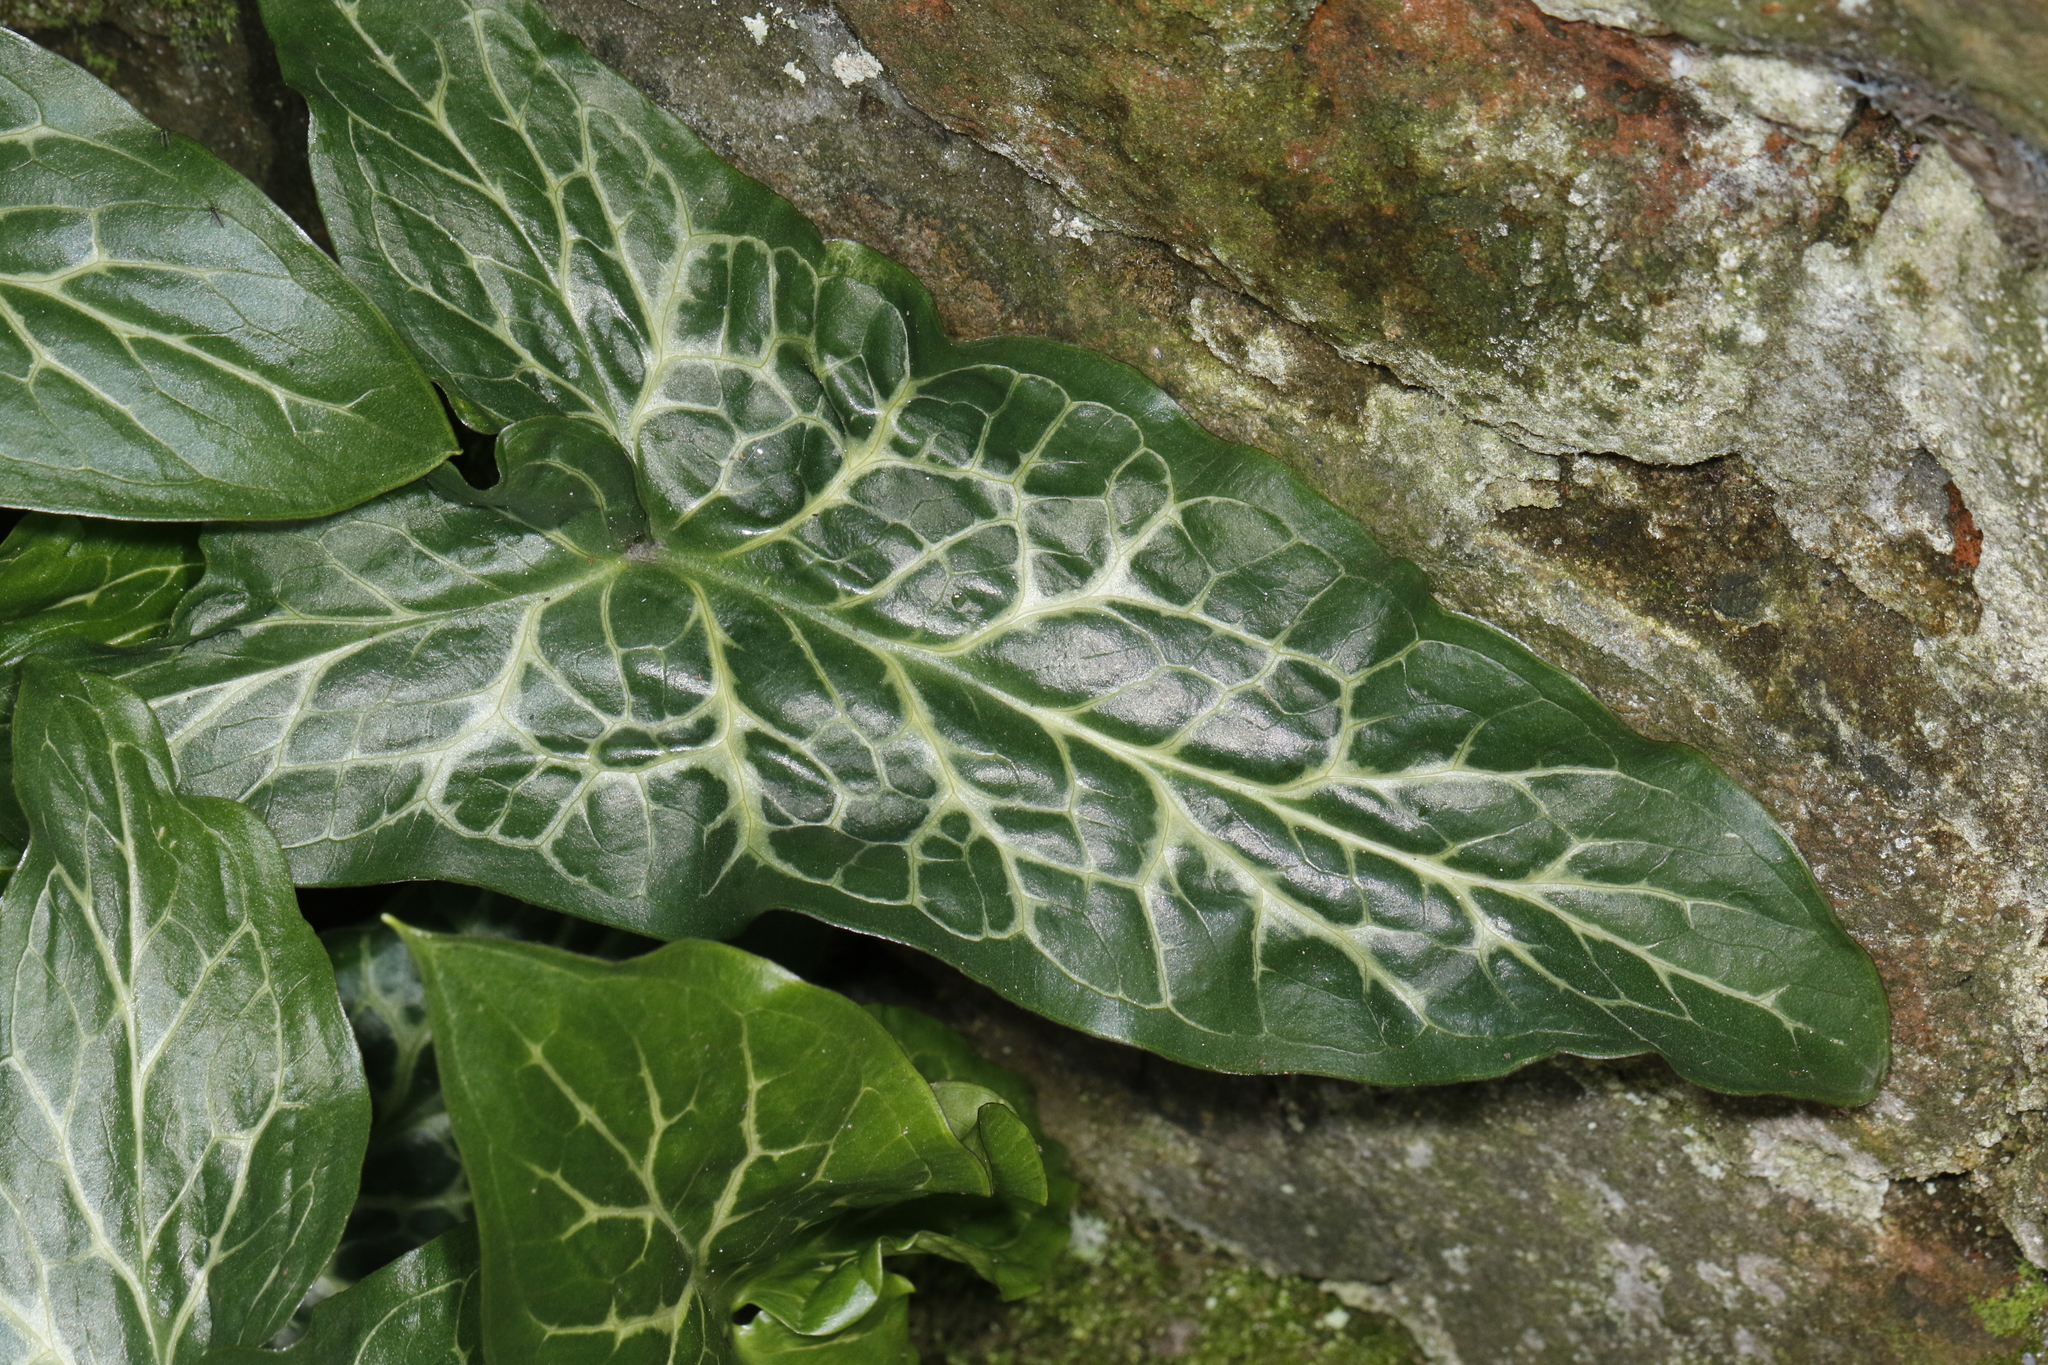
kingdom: Plantae
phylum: Tracheophyta
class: Liliopsida
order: Alismatales
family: Araceae
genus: Arum
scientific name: Arum italicum
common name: Italian lords-and-ladies
